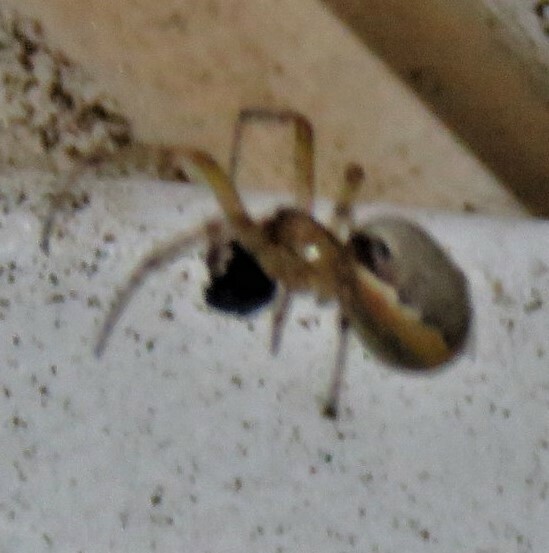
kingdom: Animalia
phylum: Arthropoda
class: Arachnida
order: Araneae
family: Araneidae
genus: Zygiella
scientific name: Zygiella atrica
